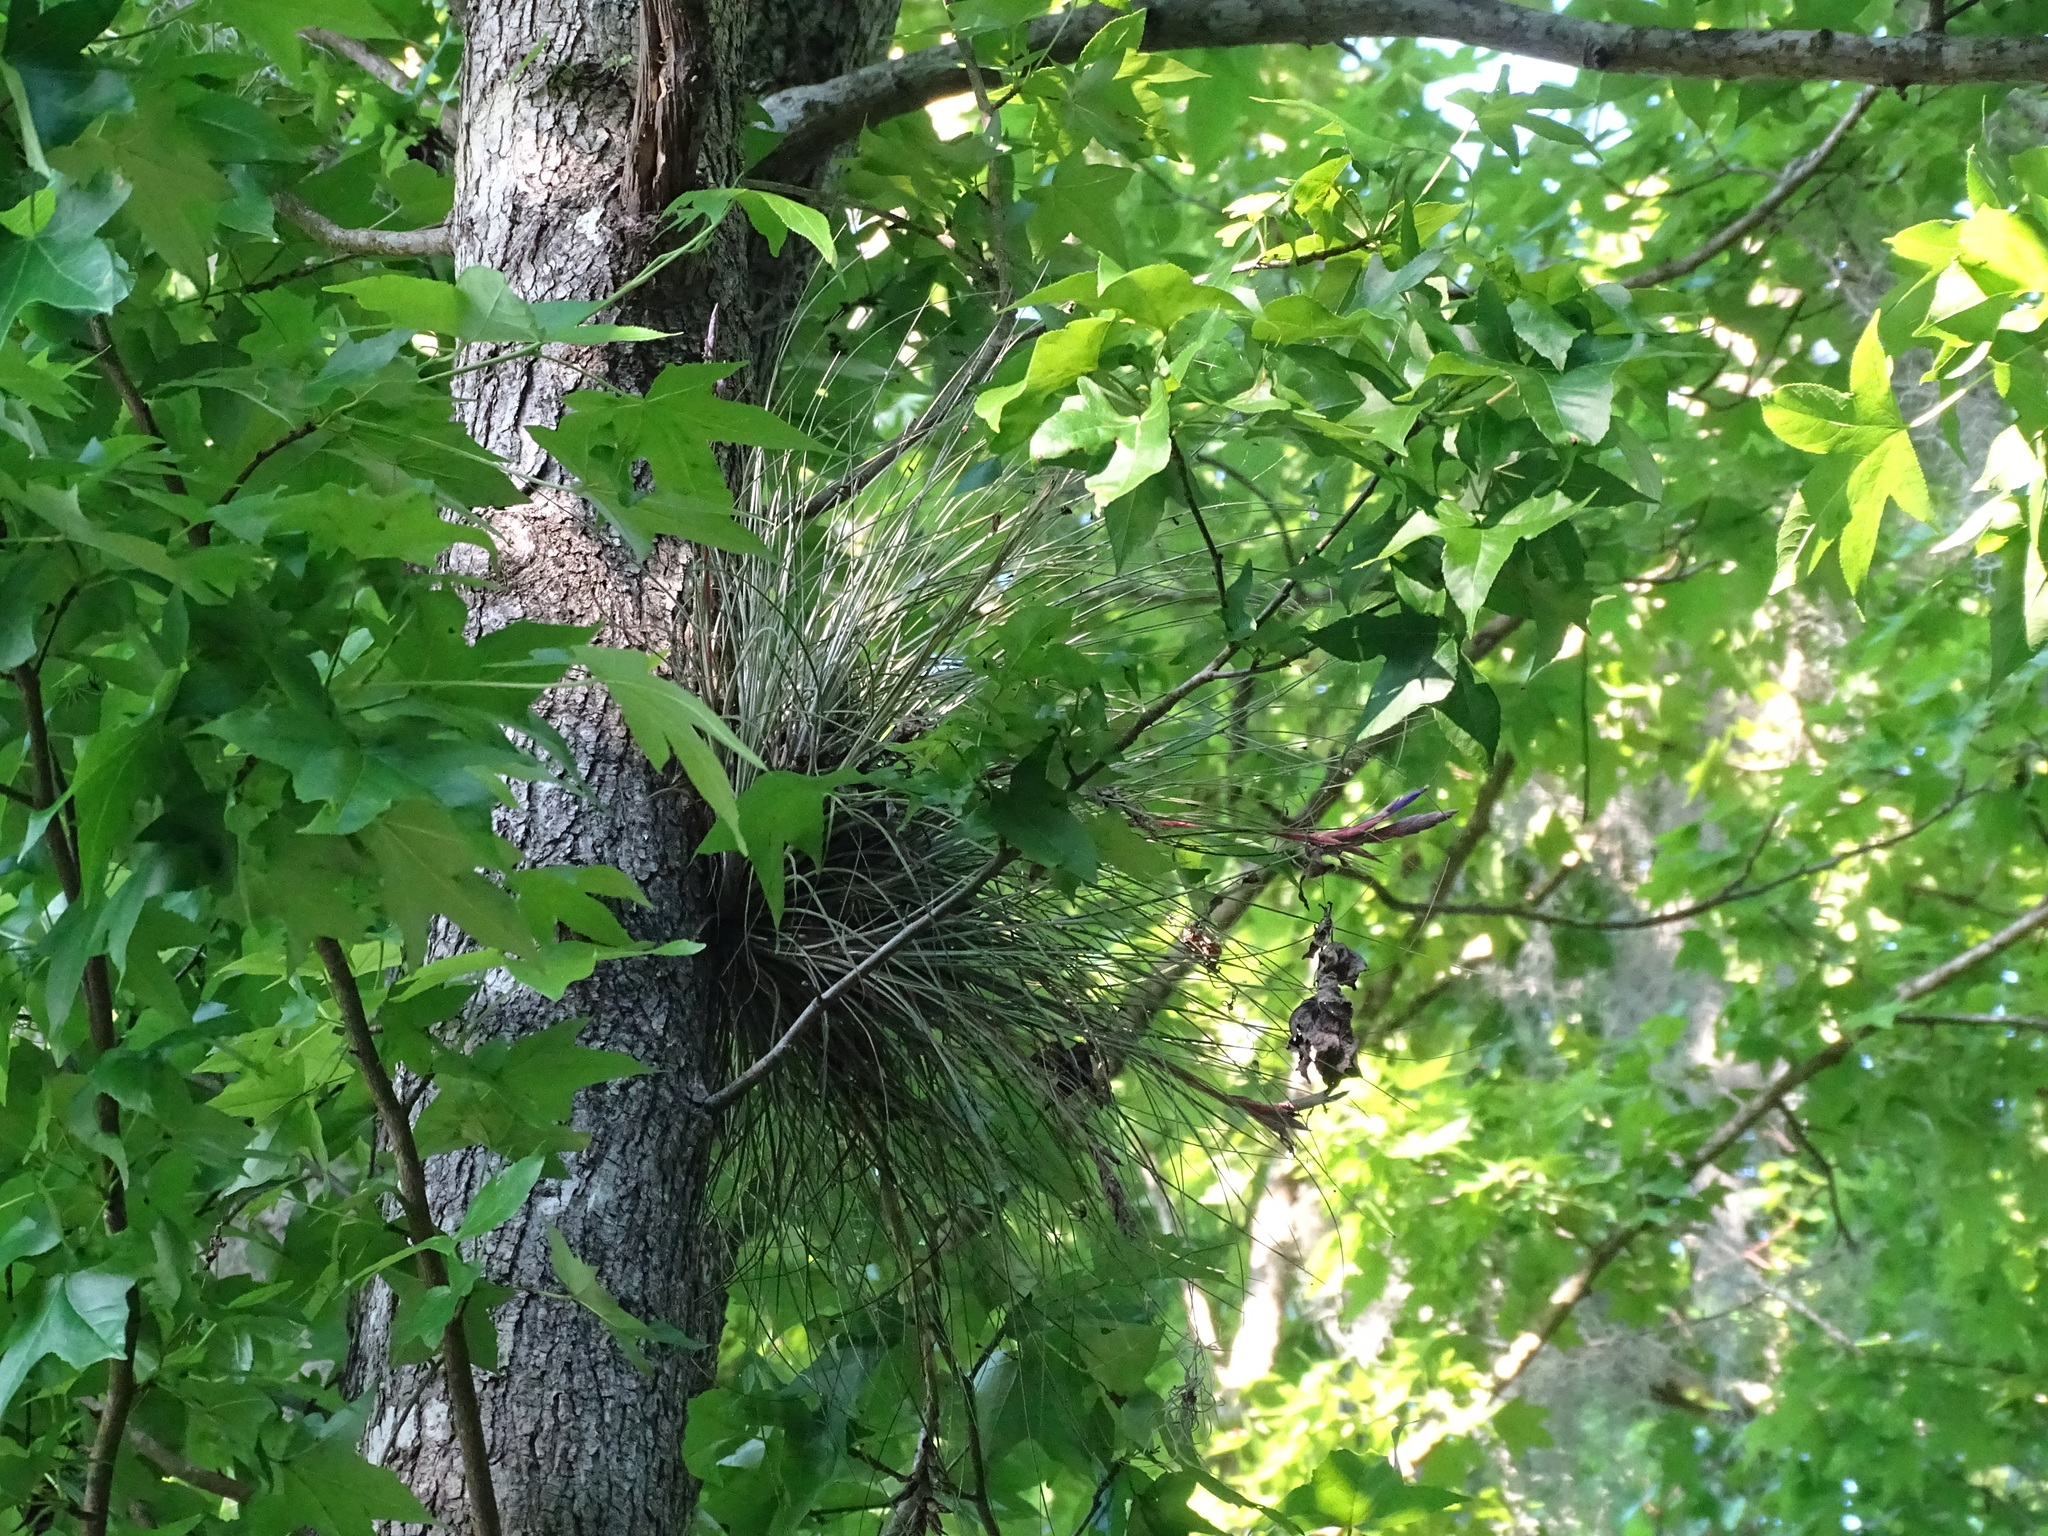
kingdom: Plantae
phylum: Tracheophyta
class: Liliopsida
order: Poales
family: Bromeliaceae
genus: Tillandsia
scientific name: Tillandsia bartramii
